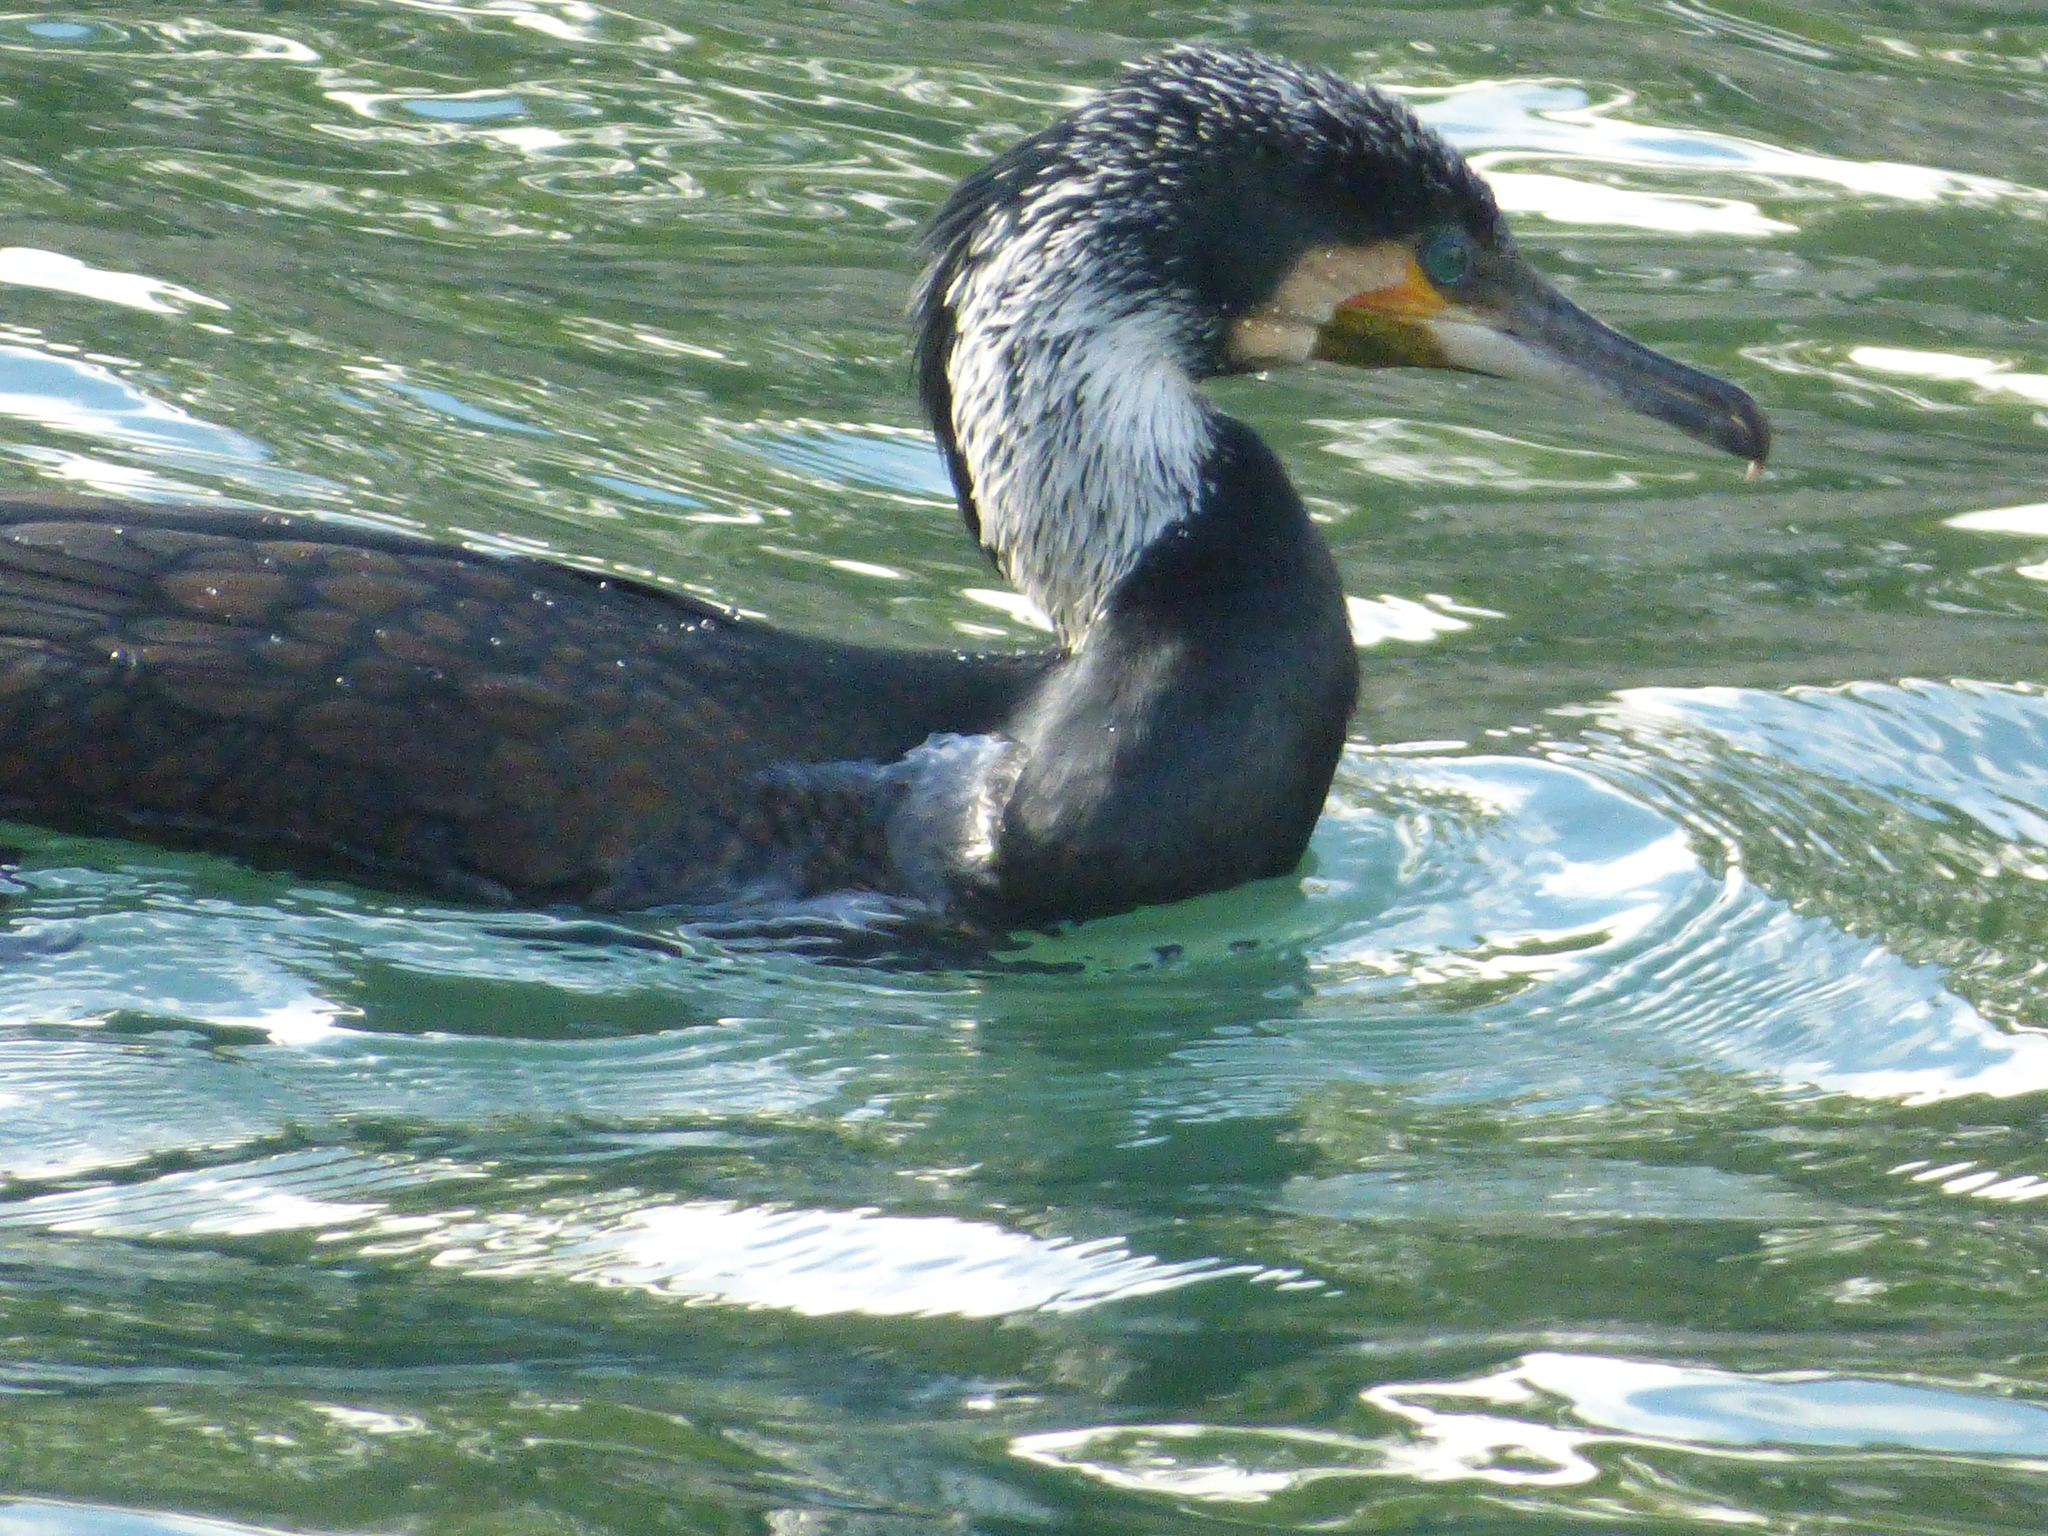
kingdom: Animalia
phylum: Chordata
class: Aves
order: Suliformes
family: Phalacrocoracidae
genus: Phalacrocorax
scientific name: Phalacrocorax carbo
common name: Great cormorant
